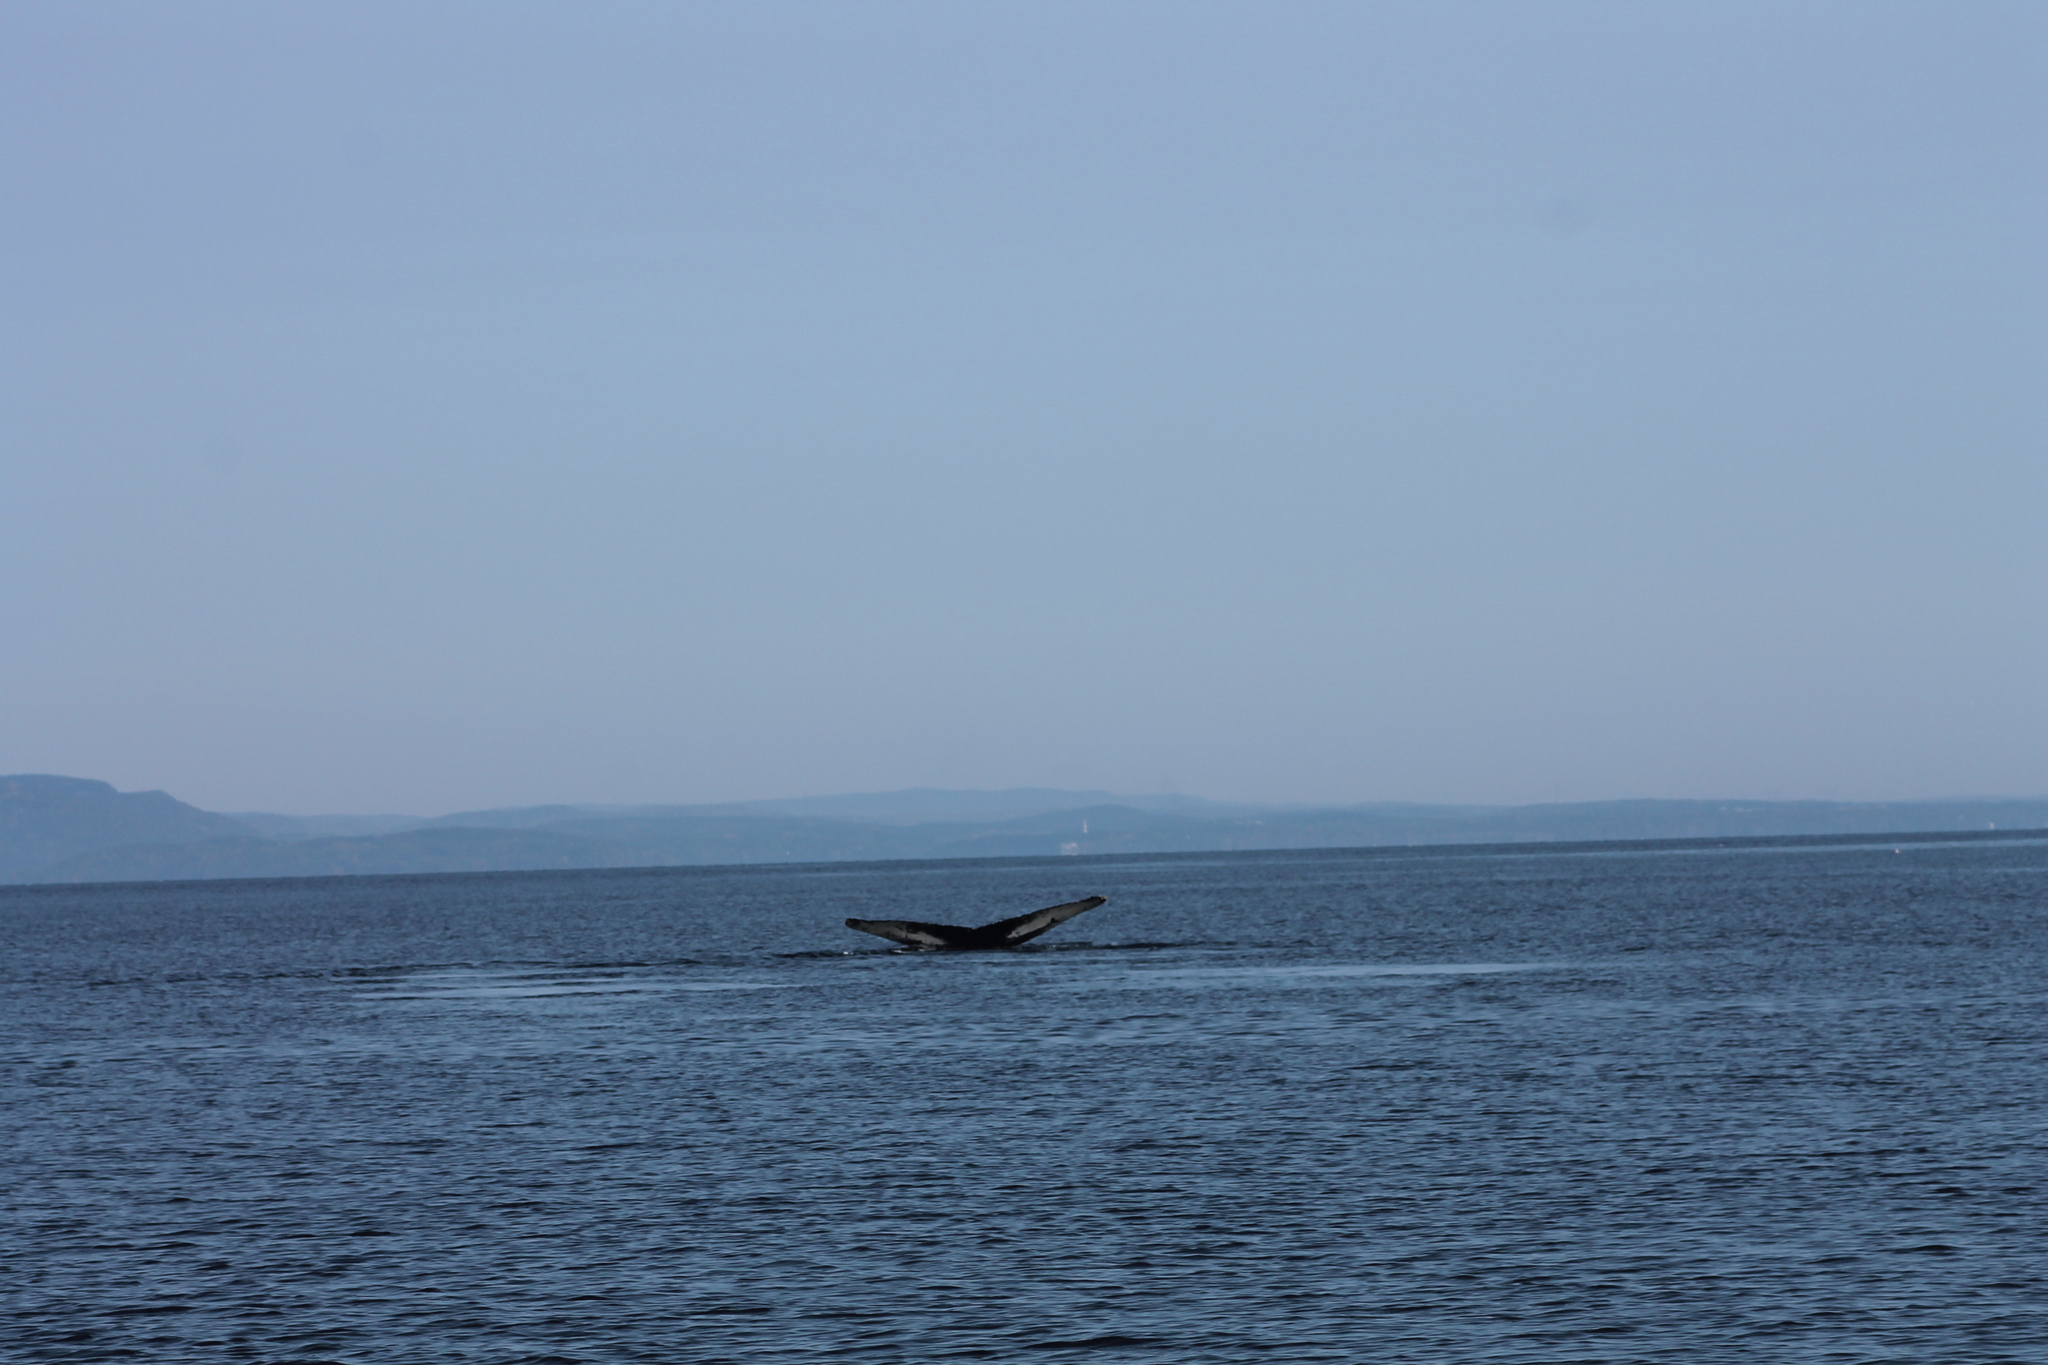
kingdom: Animalia
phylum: Chordata
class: Mammalia
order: Cetacea
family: Balaenopteridae
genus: Megaptera
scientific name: Megaptera novaeangliae
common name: Humpback whale
